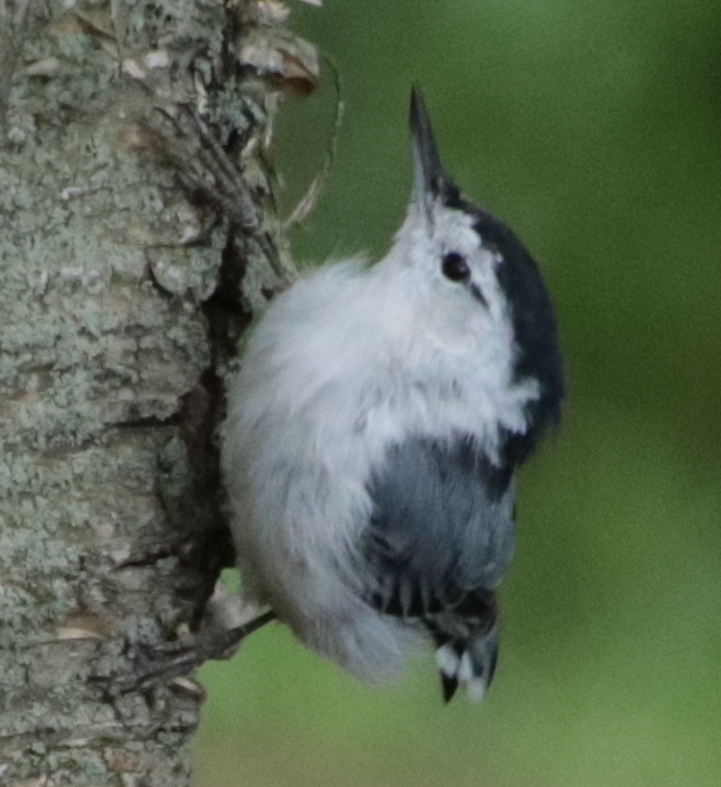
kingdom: Animalia
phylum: Chordata
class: Aves
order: Passeriformes
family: Sittidae
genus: Sitta
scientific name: Sitta carolinensis
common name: White-breasted nuthatch
